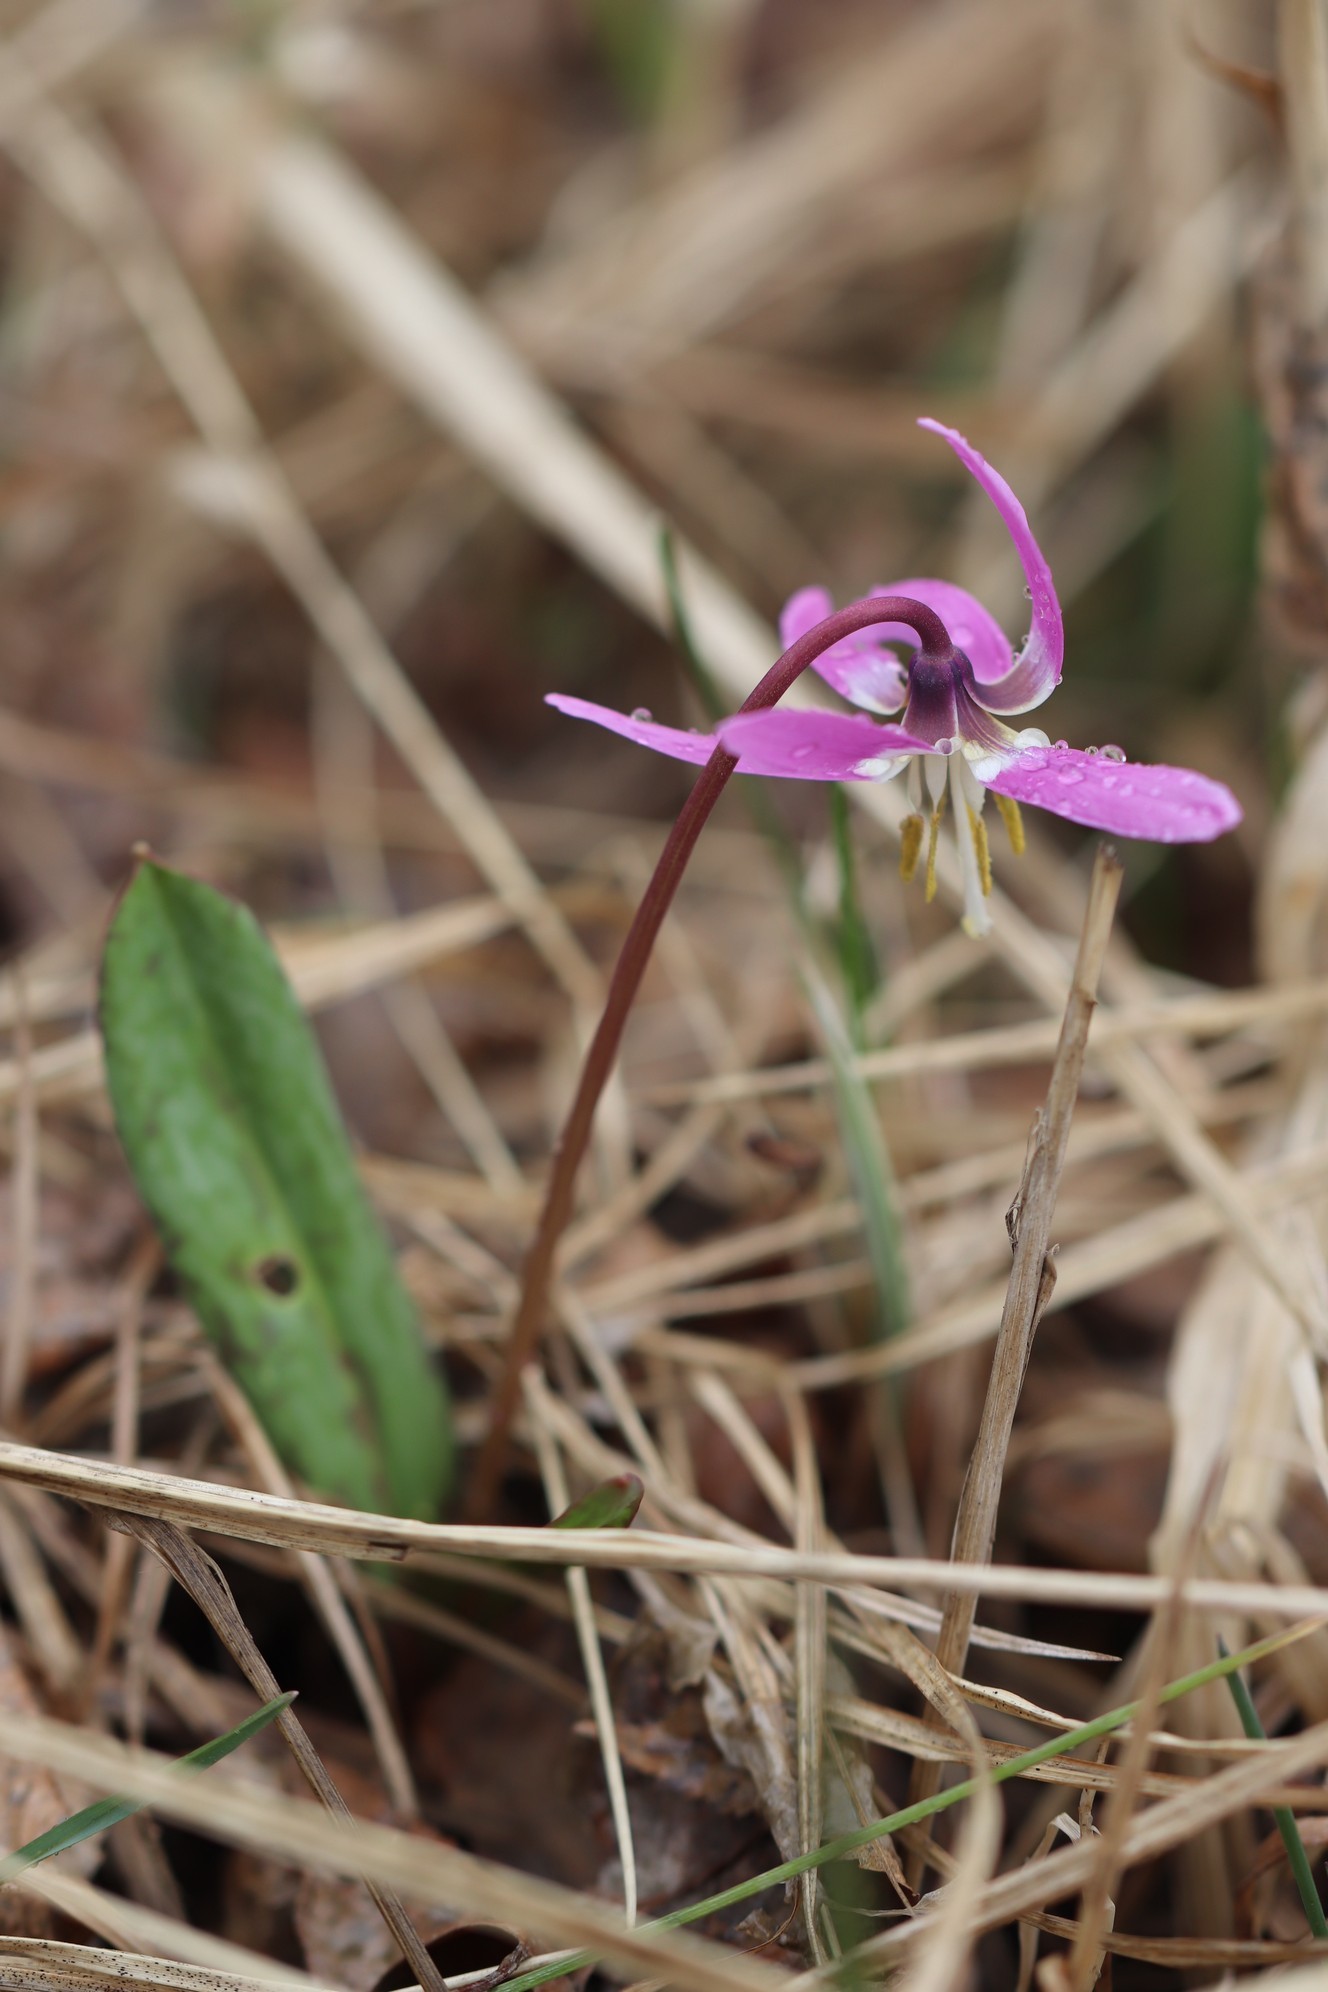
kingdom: Plantae
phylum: Tracheophyta
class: Liliopsida
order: Liliales
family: Liliaceae
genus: Erythronium
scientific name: Erythronium sibiricum
